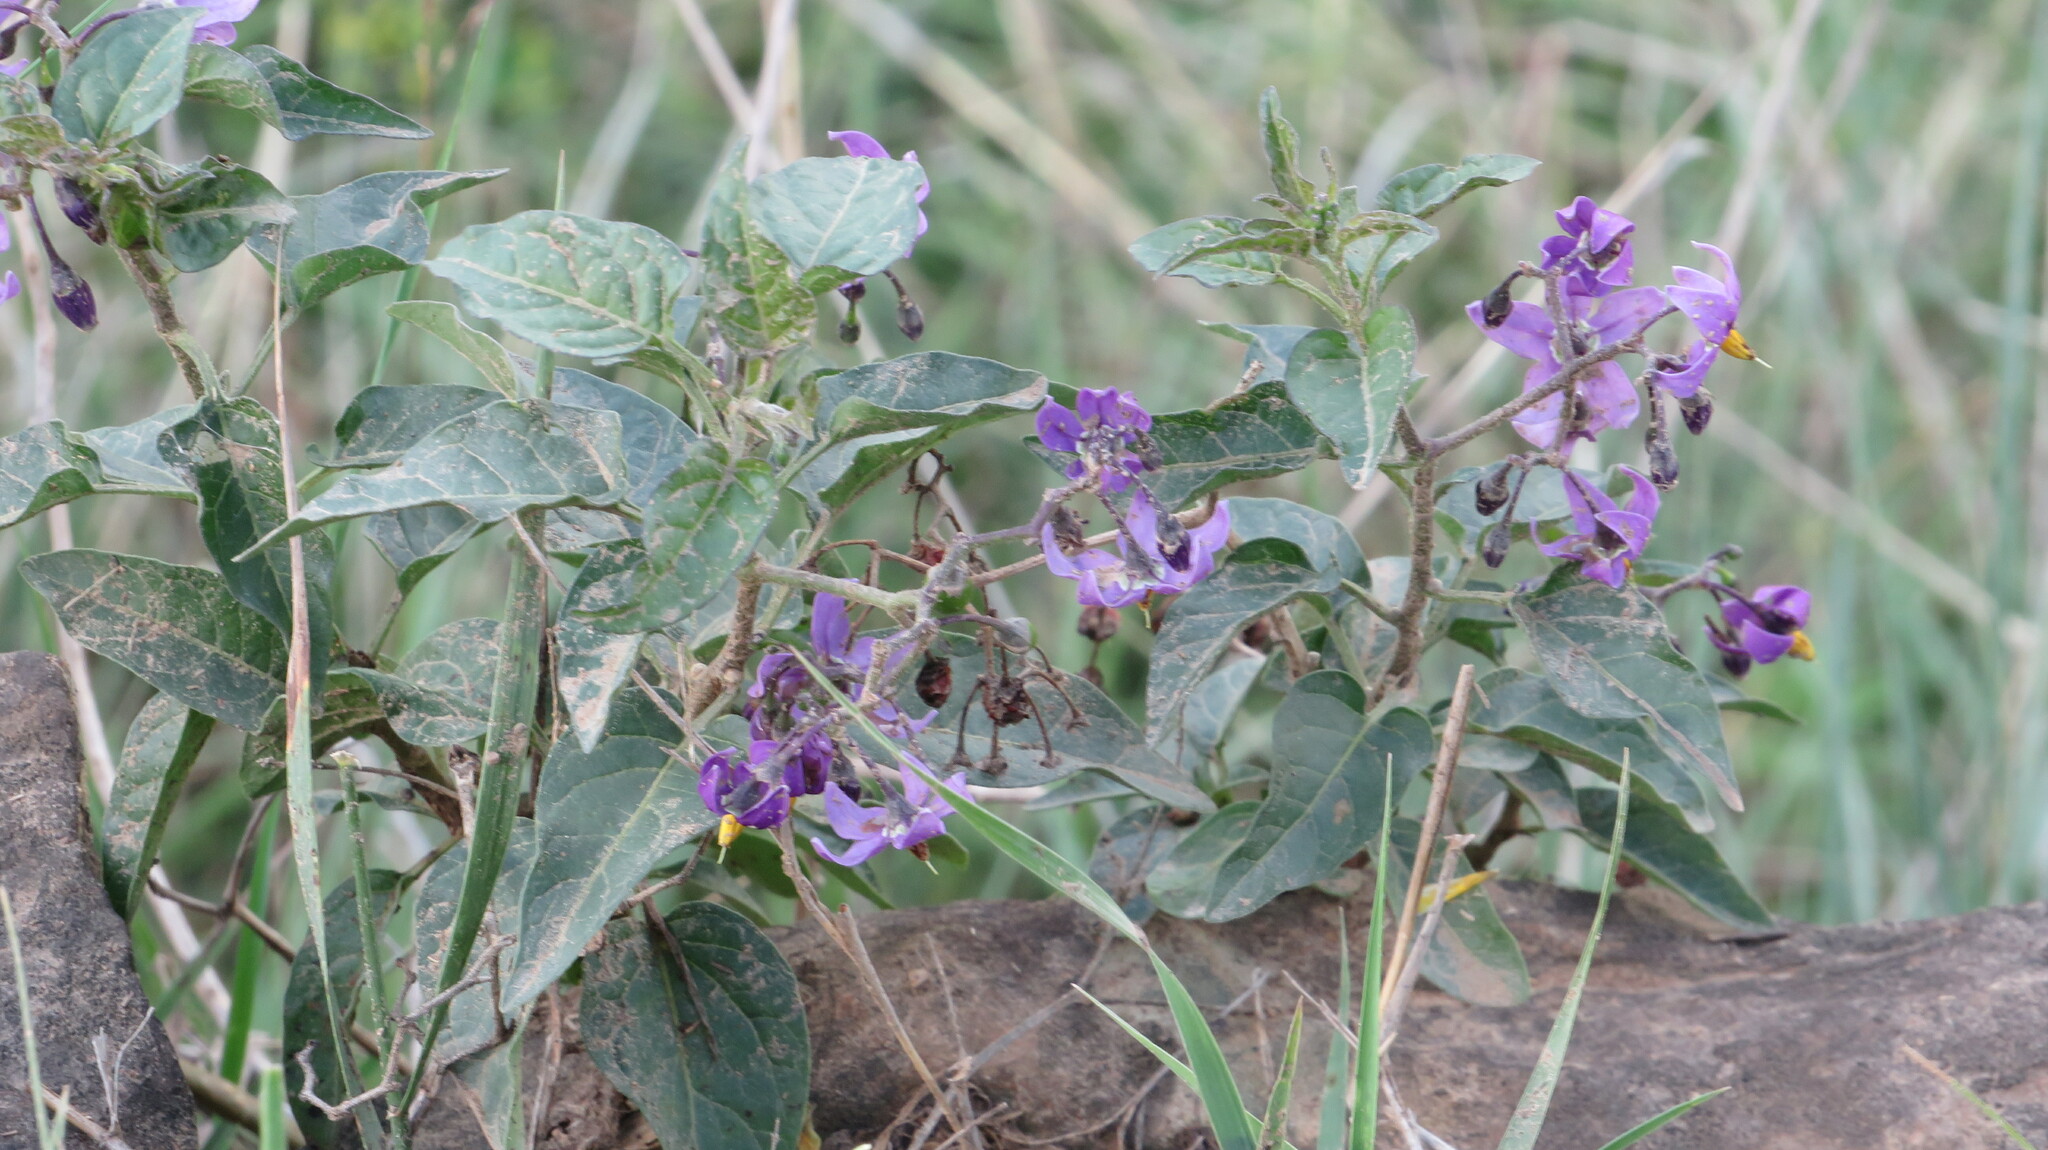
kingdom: Plantae
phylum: Tracheophyta
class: Magnoliopsida
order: Solanales
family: Solanaceae
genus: Solanum
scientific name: Solanum dulcamara
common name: Climbing nightshade
